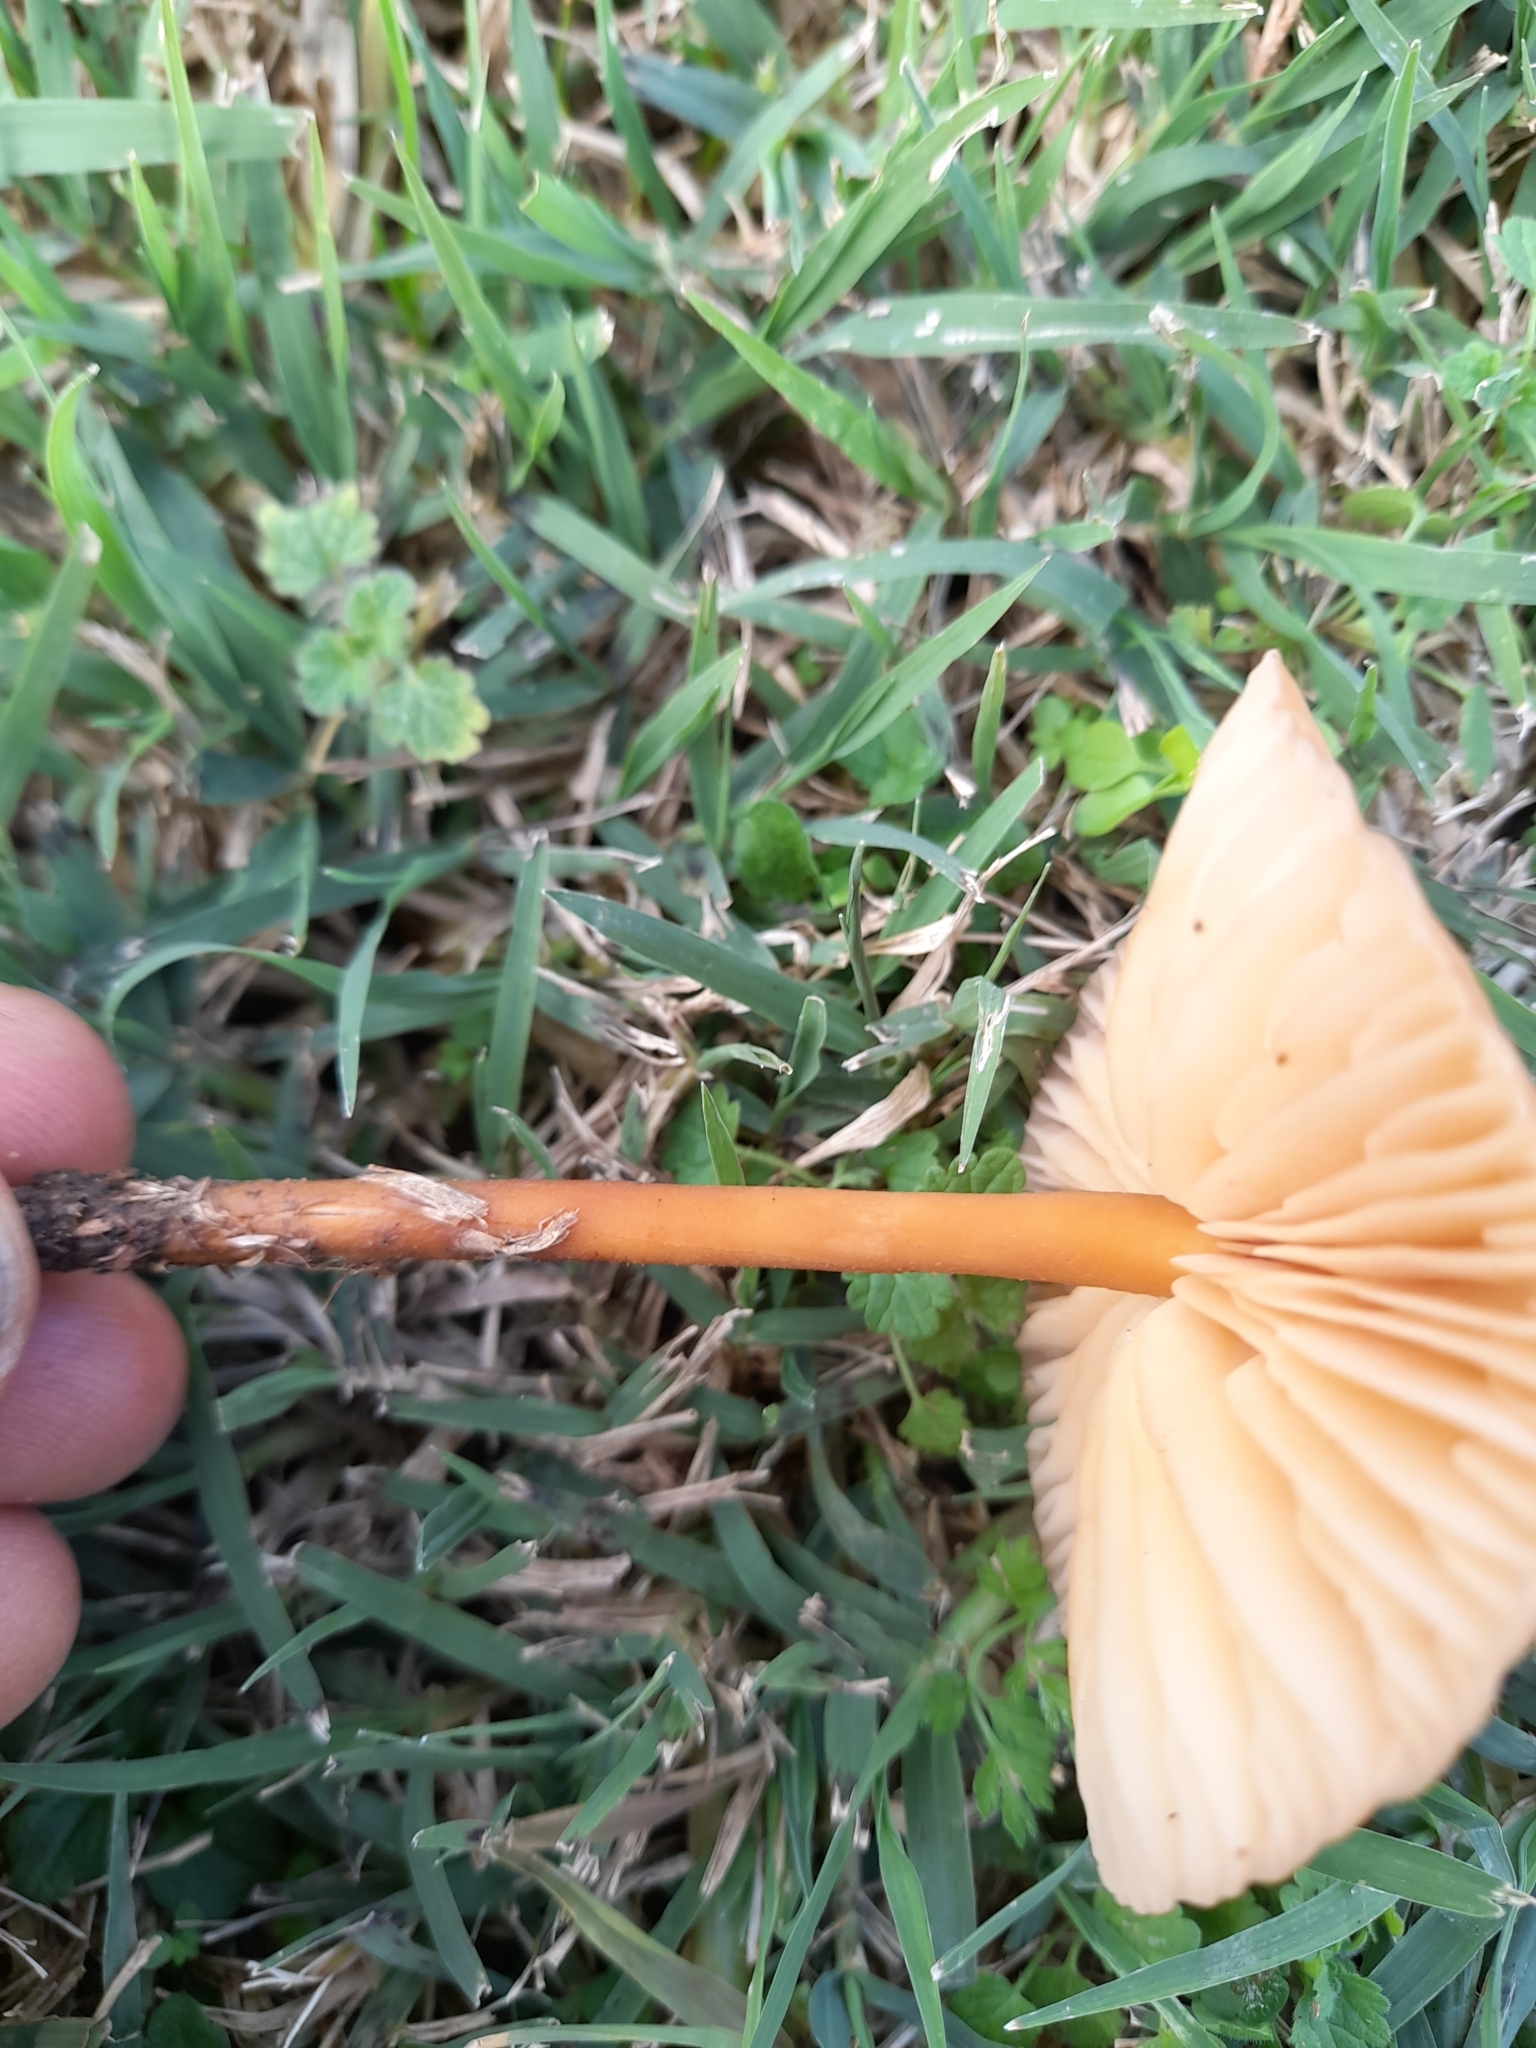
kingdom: Fungi
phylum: Basidiomycota
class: Agaricomycetes
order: Agaricales
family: Marasmiaceae
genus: Marasmius
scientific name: Marasmius oreades
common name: Fairy ring champignon
